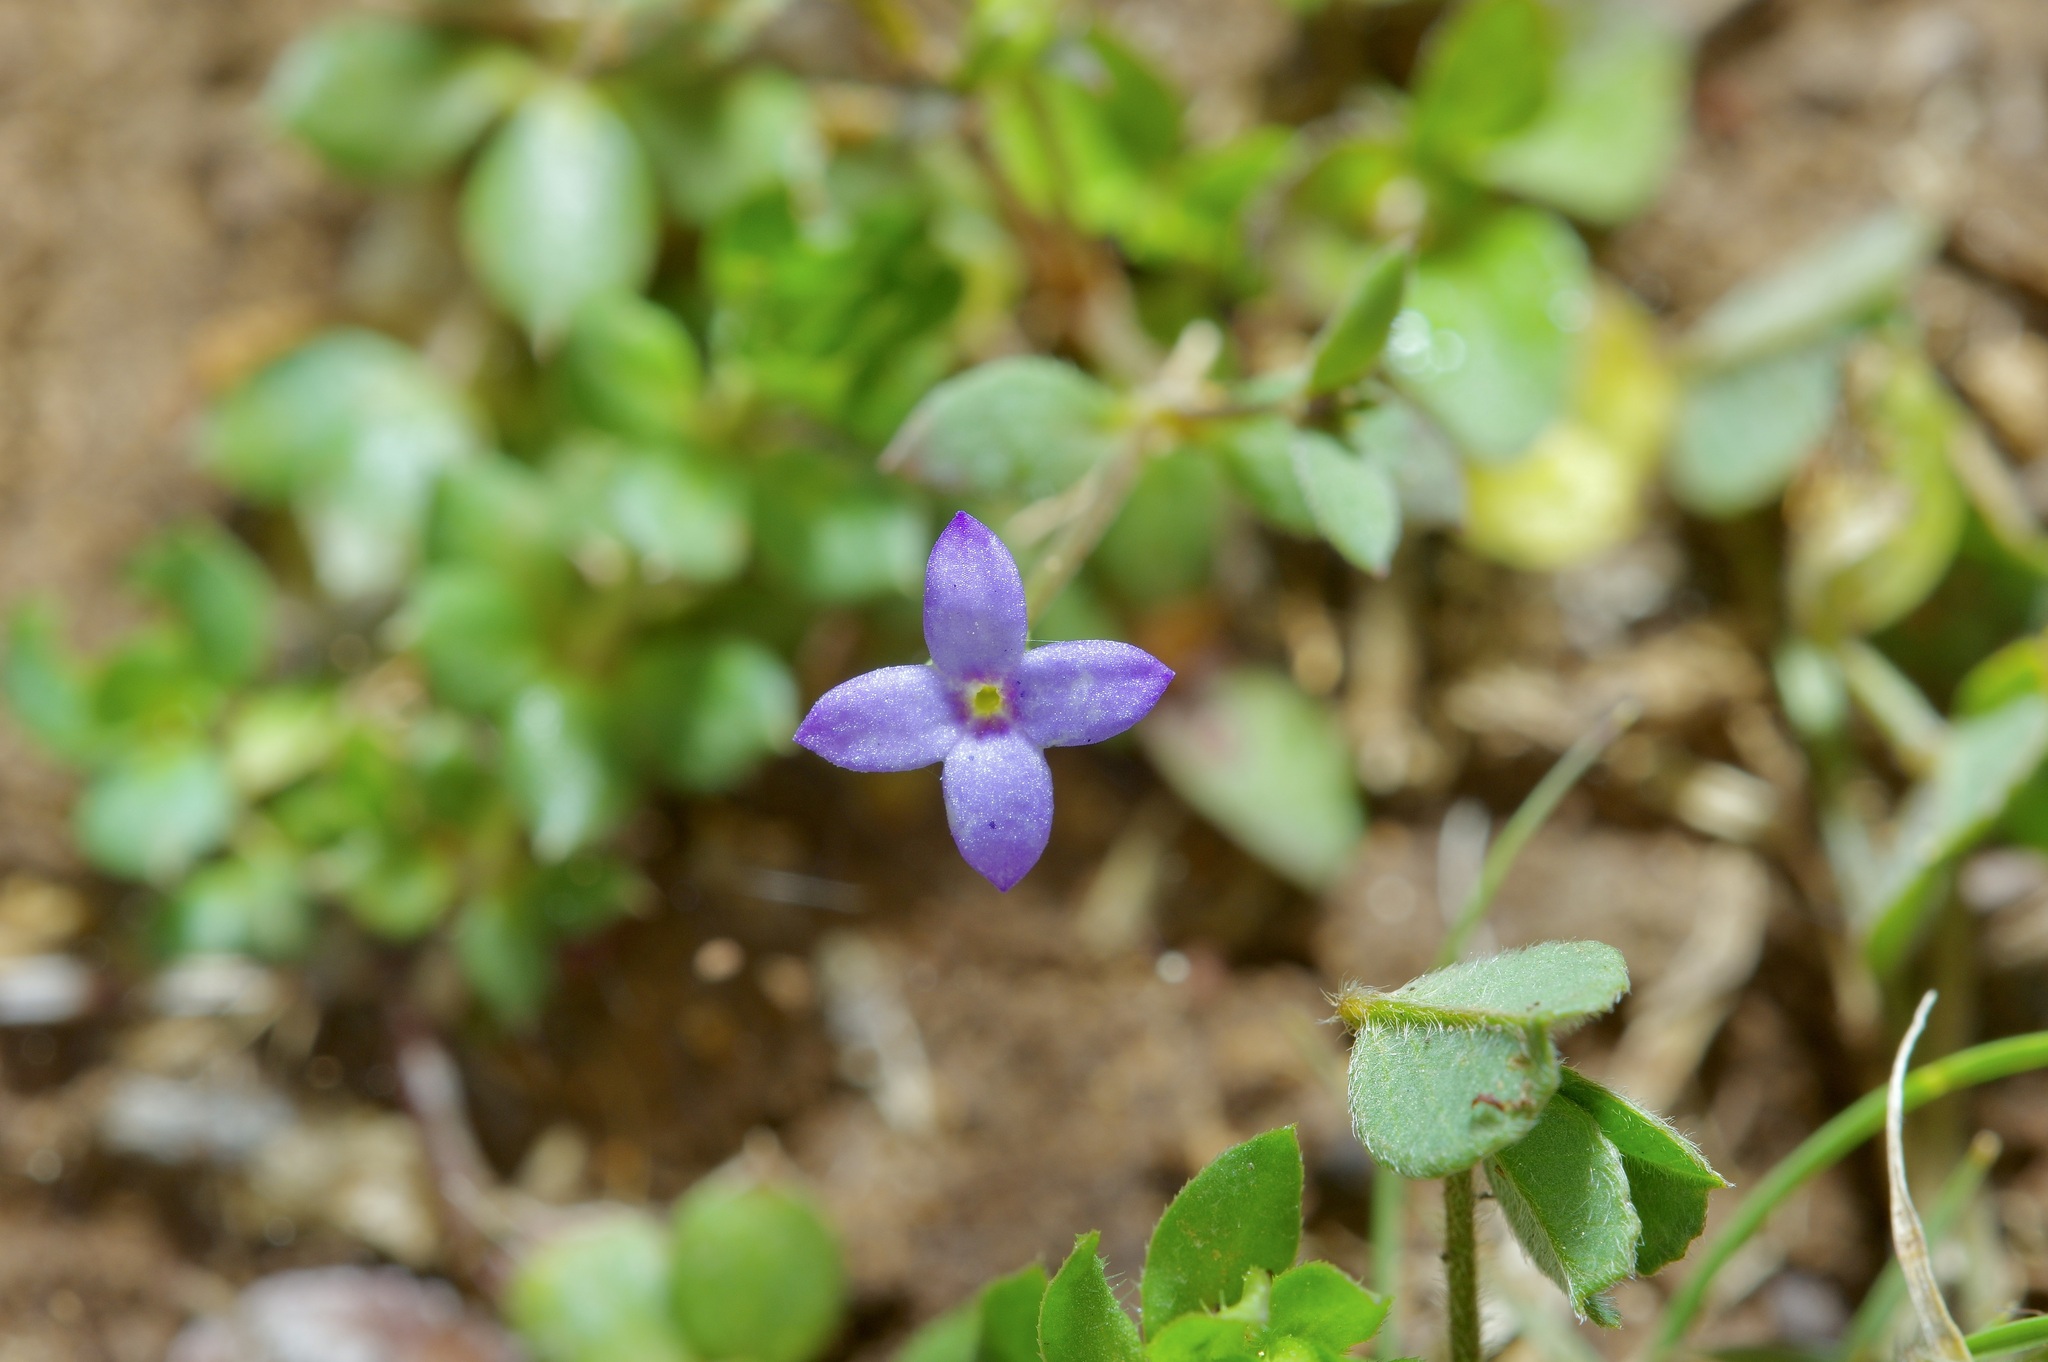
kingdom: Plantae
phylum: Tracheophyta
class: Magnoliopsida
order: Gentianales
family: Rubiaceae
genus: Houstonia
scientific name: Houstonia pusilla
